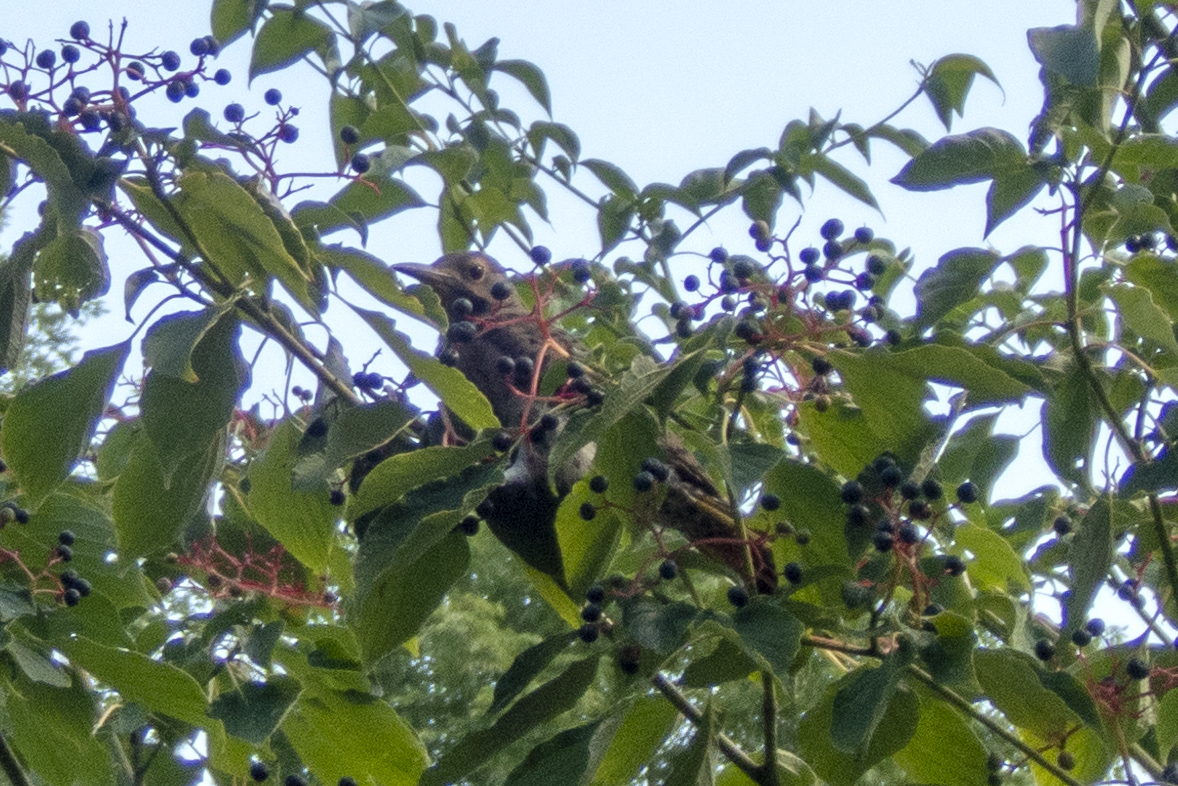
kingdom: Animalia
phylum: Chordata
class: Aves
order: Piciformes
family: Picidae
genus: Colaptes
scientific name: Colaptes auratus
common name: Northern flicker
